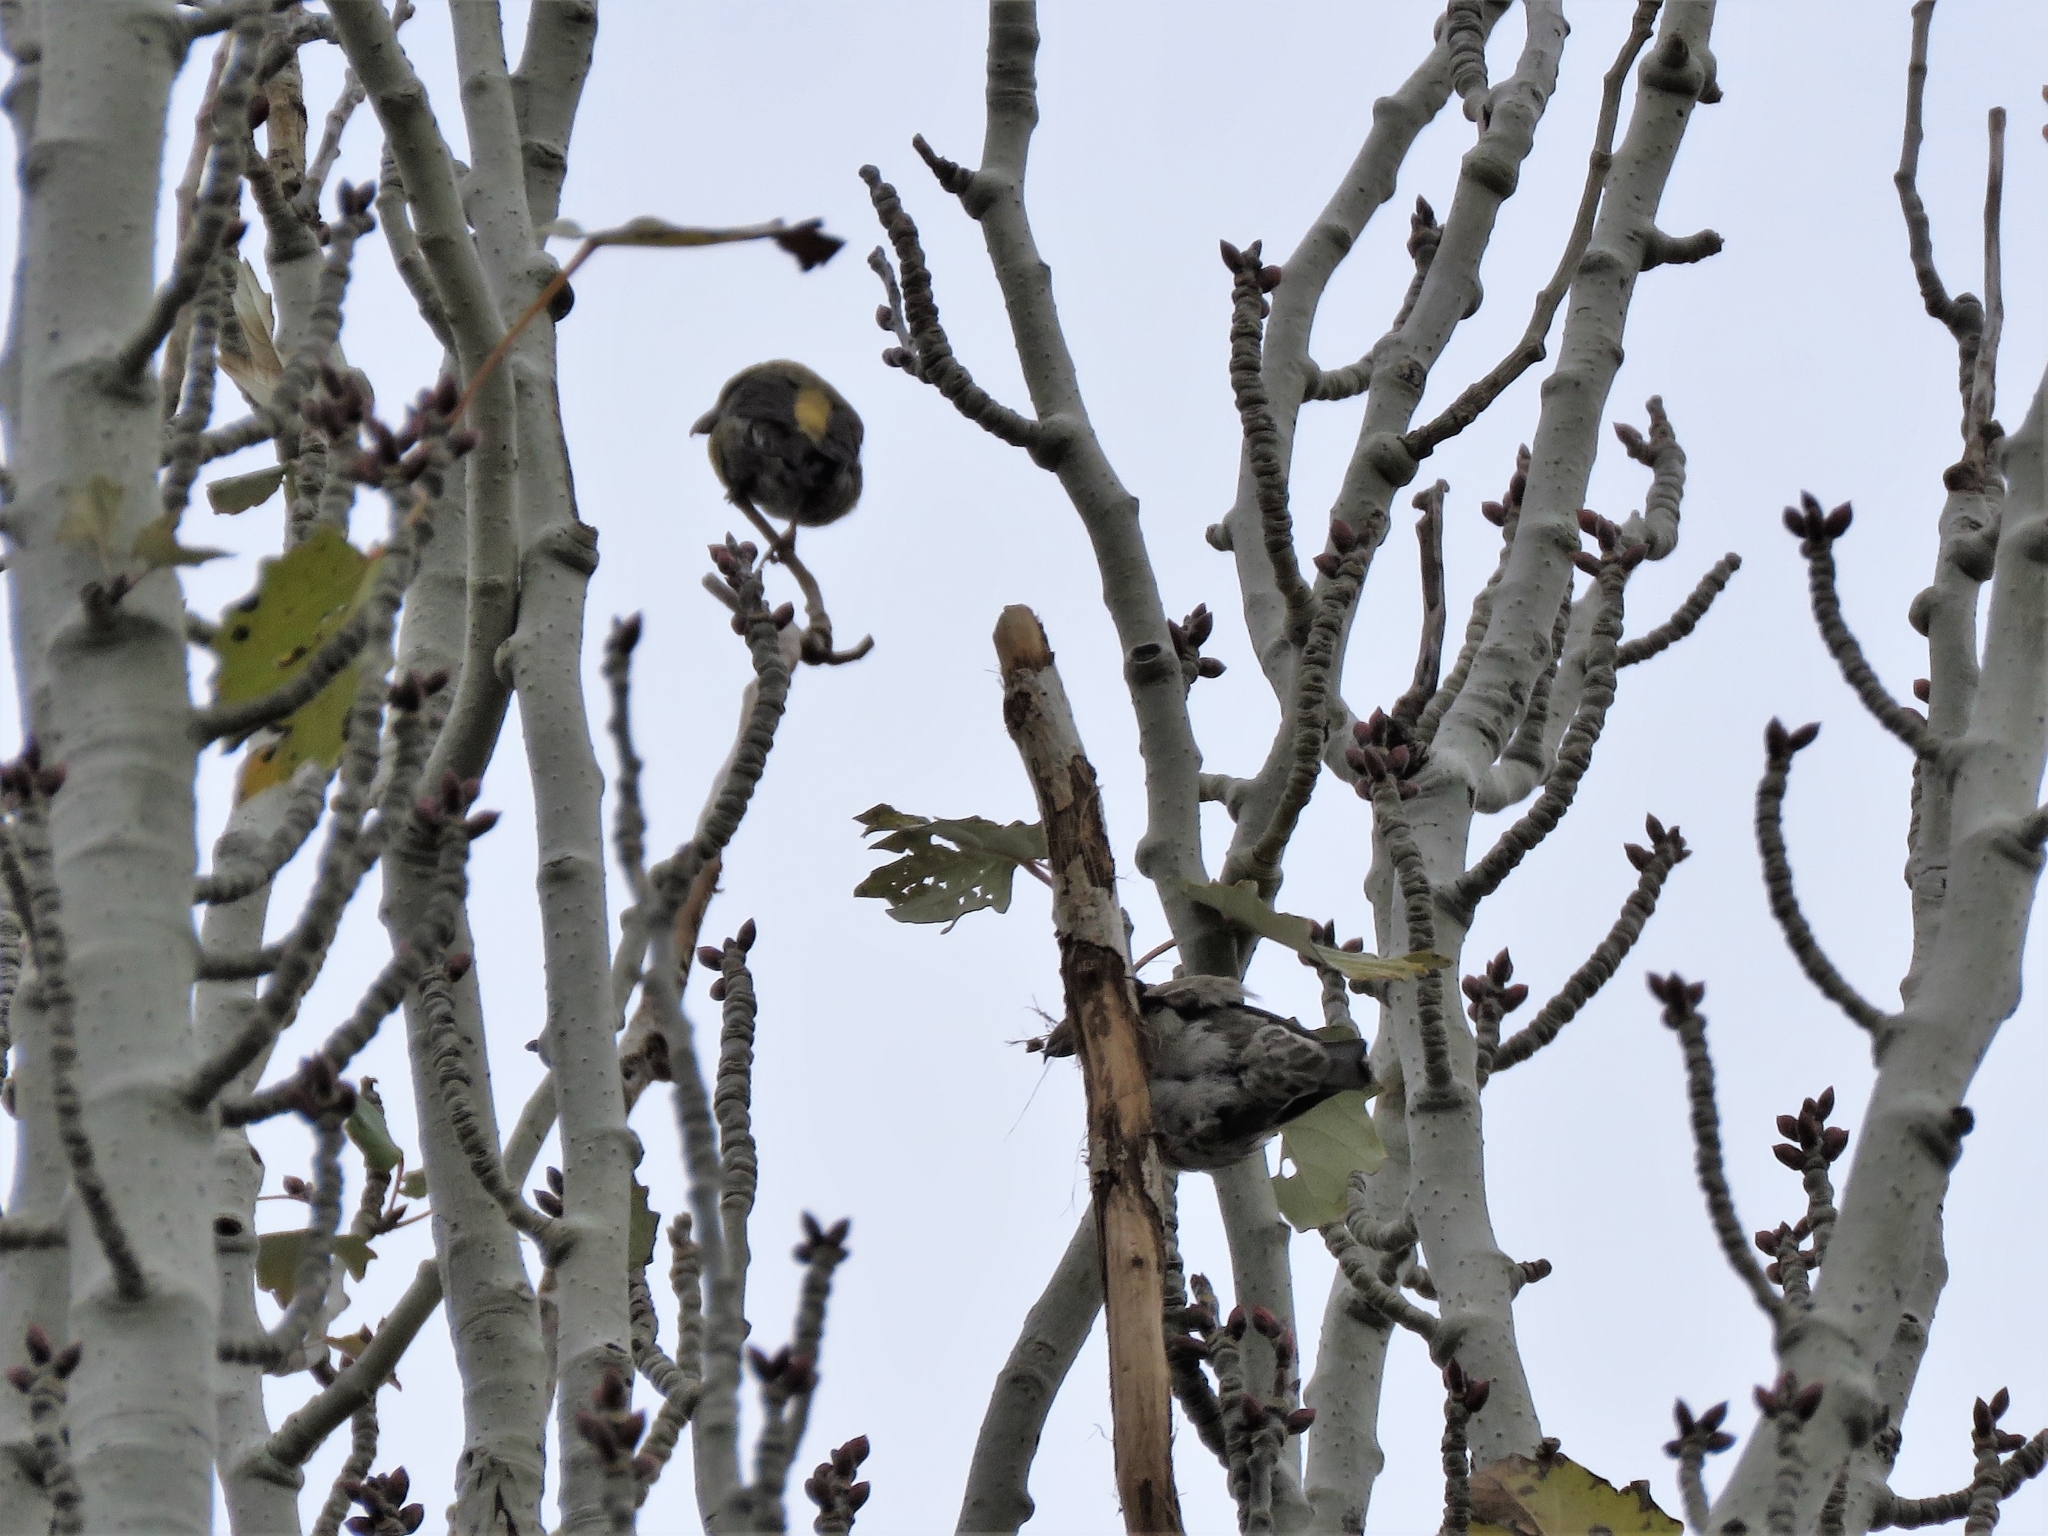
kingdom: Animalia
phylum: Chordata
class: Aves
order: Passeriformes
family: Fringillidae
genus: Loxia
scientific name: Loxia curvirostra
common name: Red crossbill
